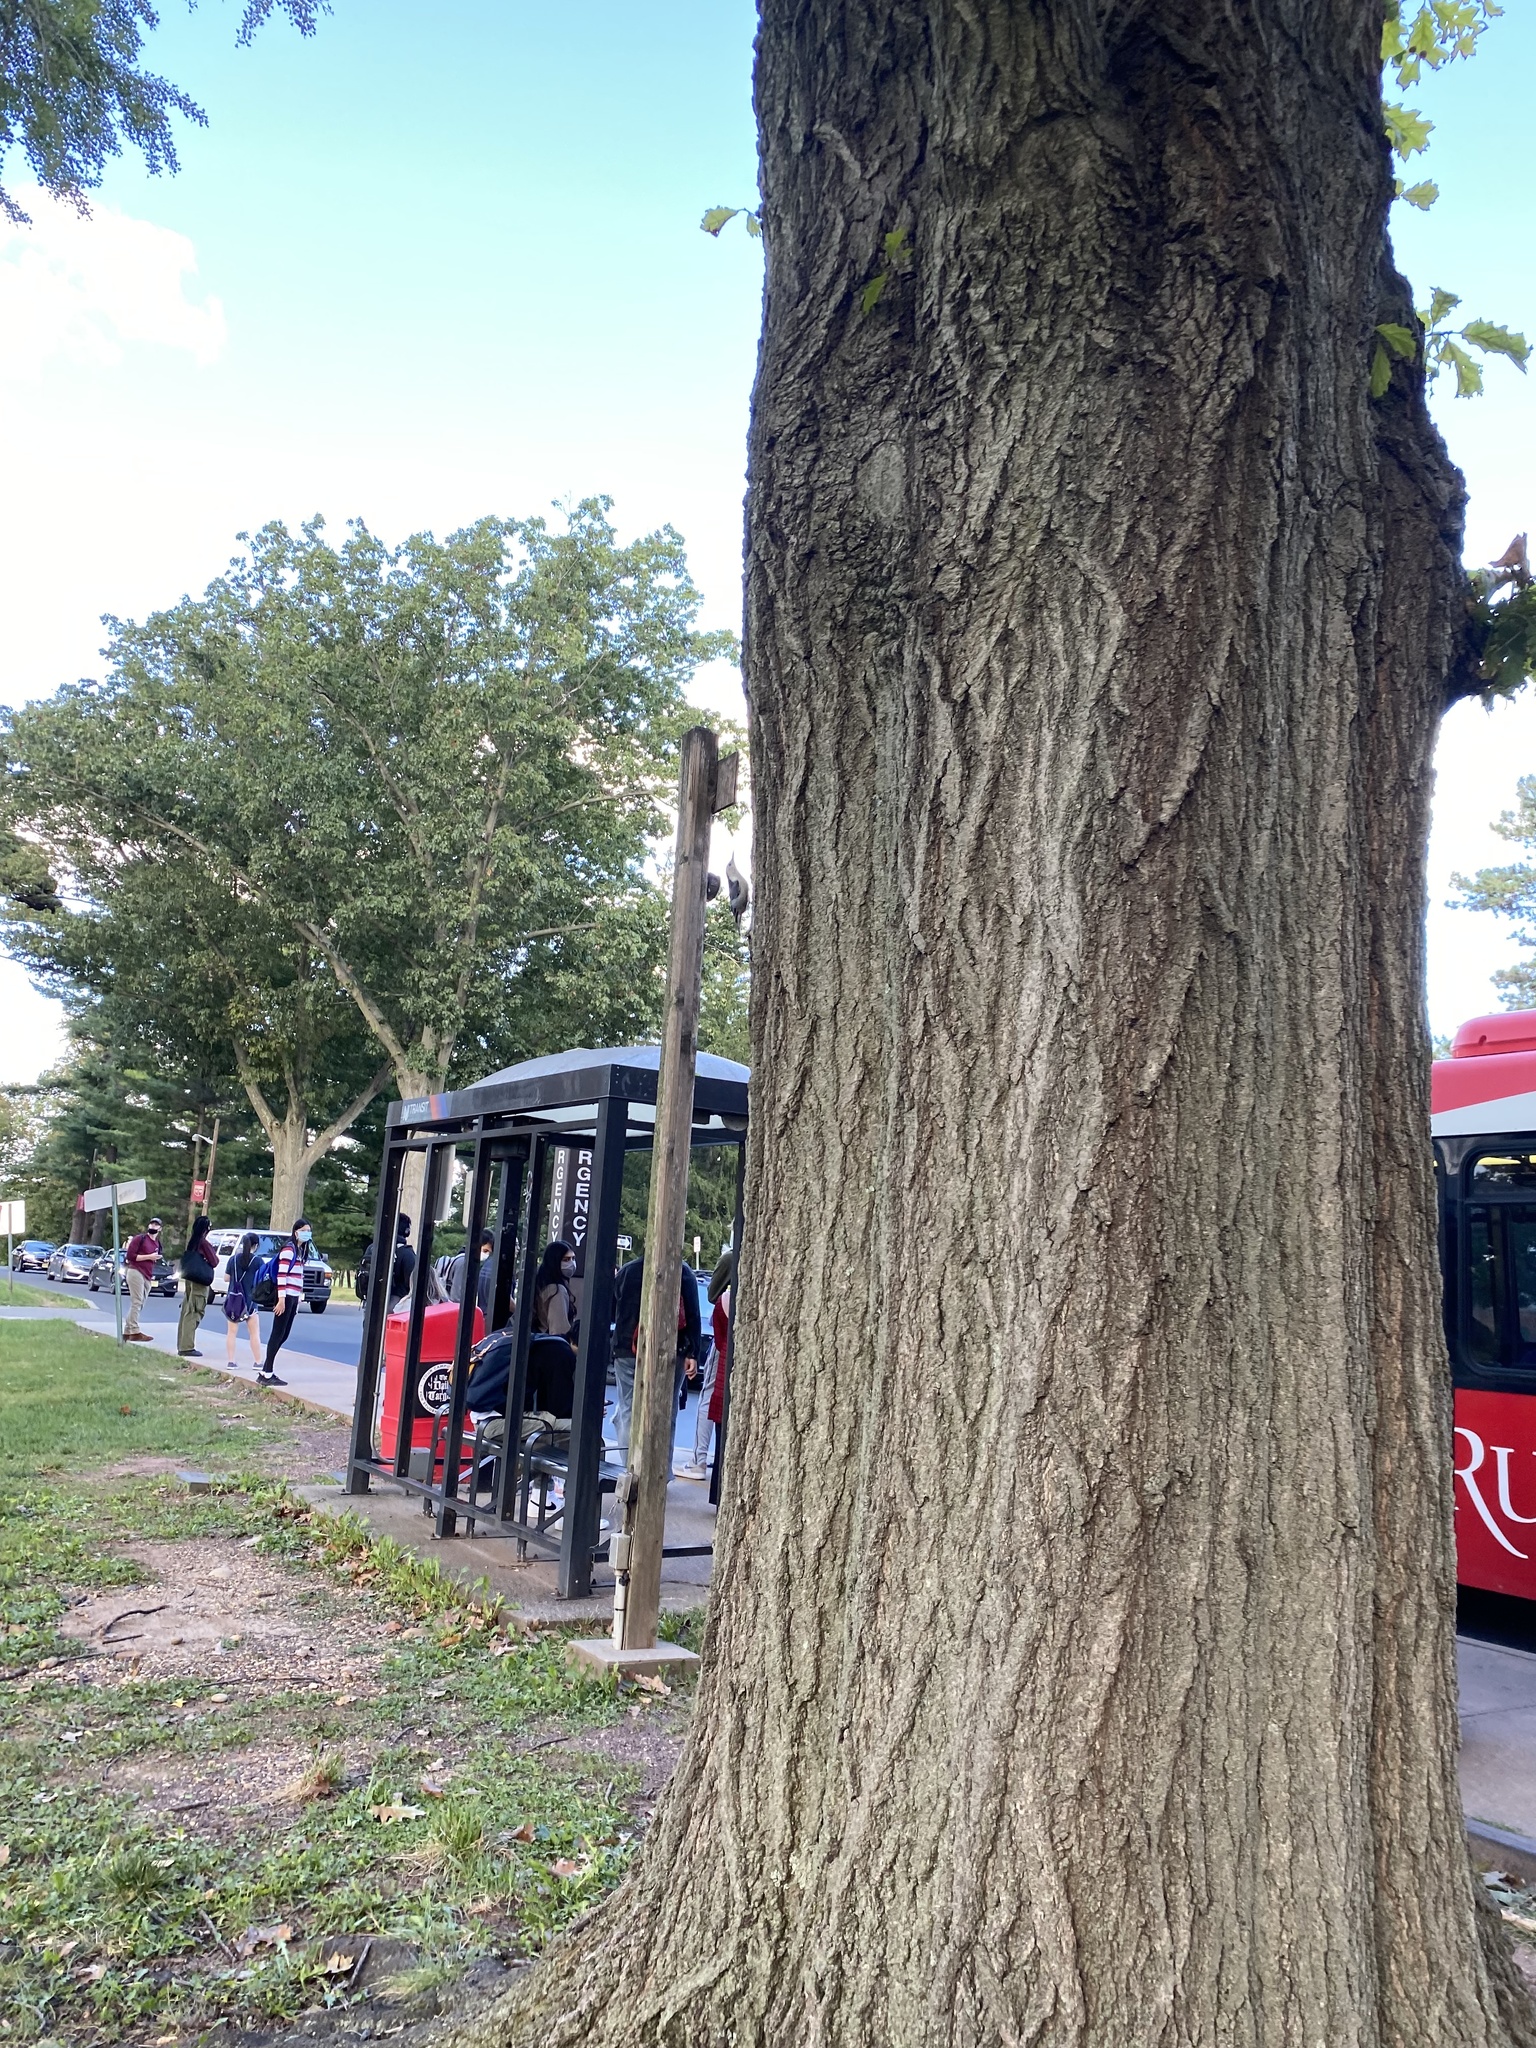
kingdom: Animalia
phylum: Chordata
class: Aves
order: Passeriformes
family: Sittidae
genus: Sitta
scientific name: Sitta carolinensis
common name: White-breasted nuthatch
